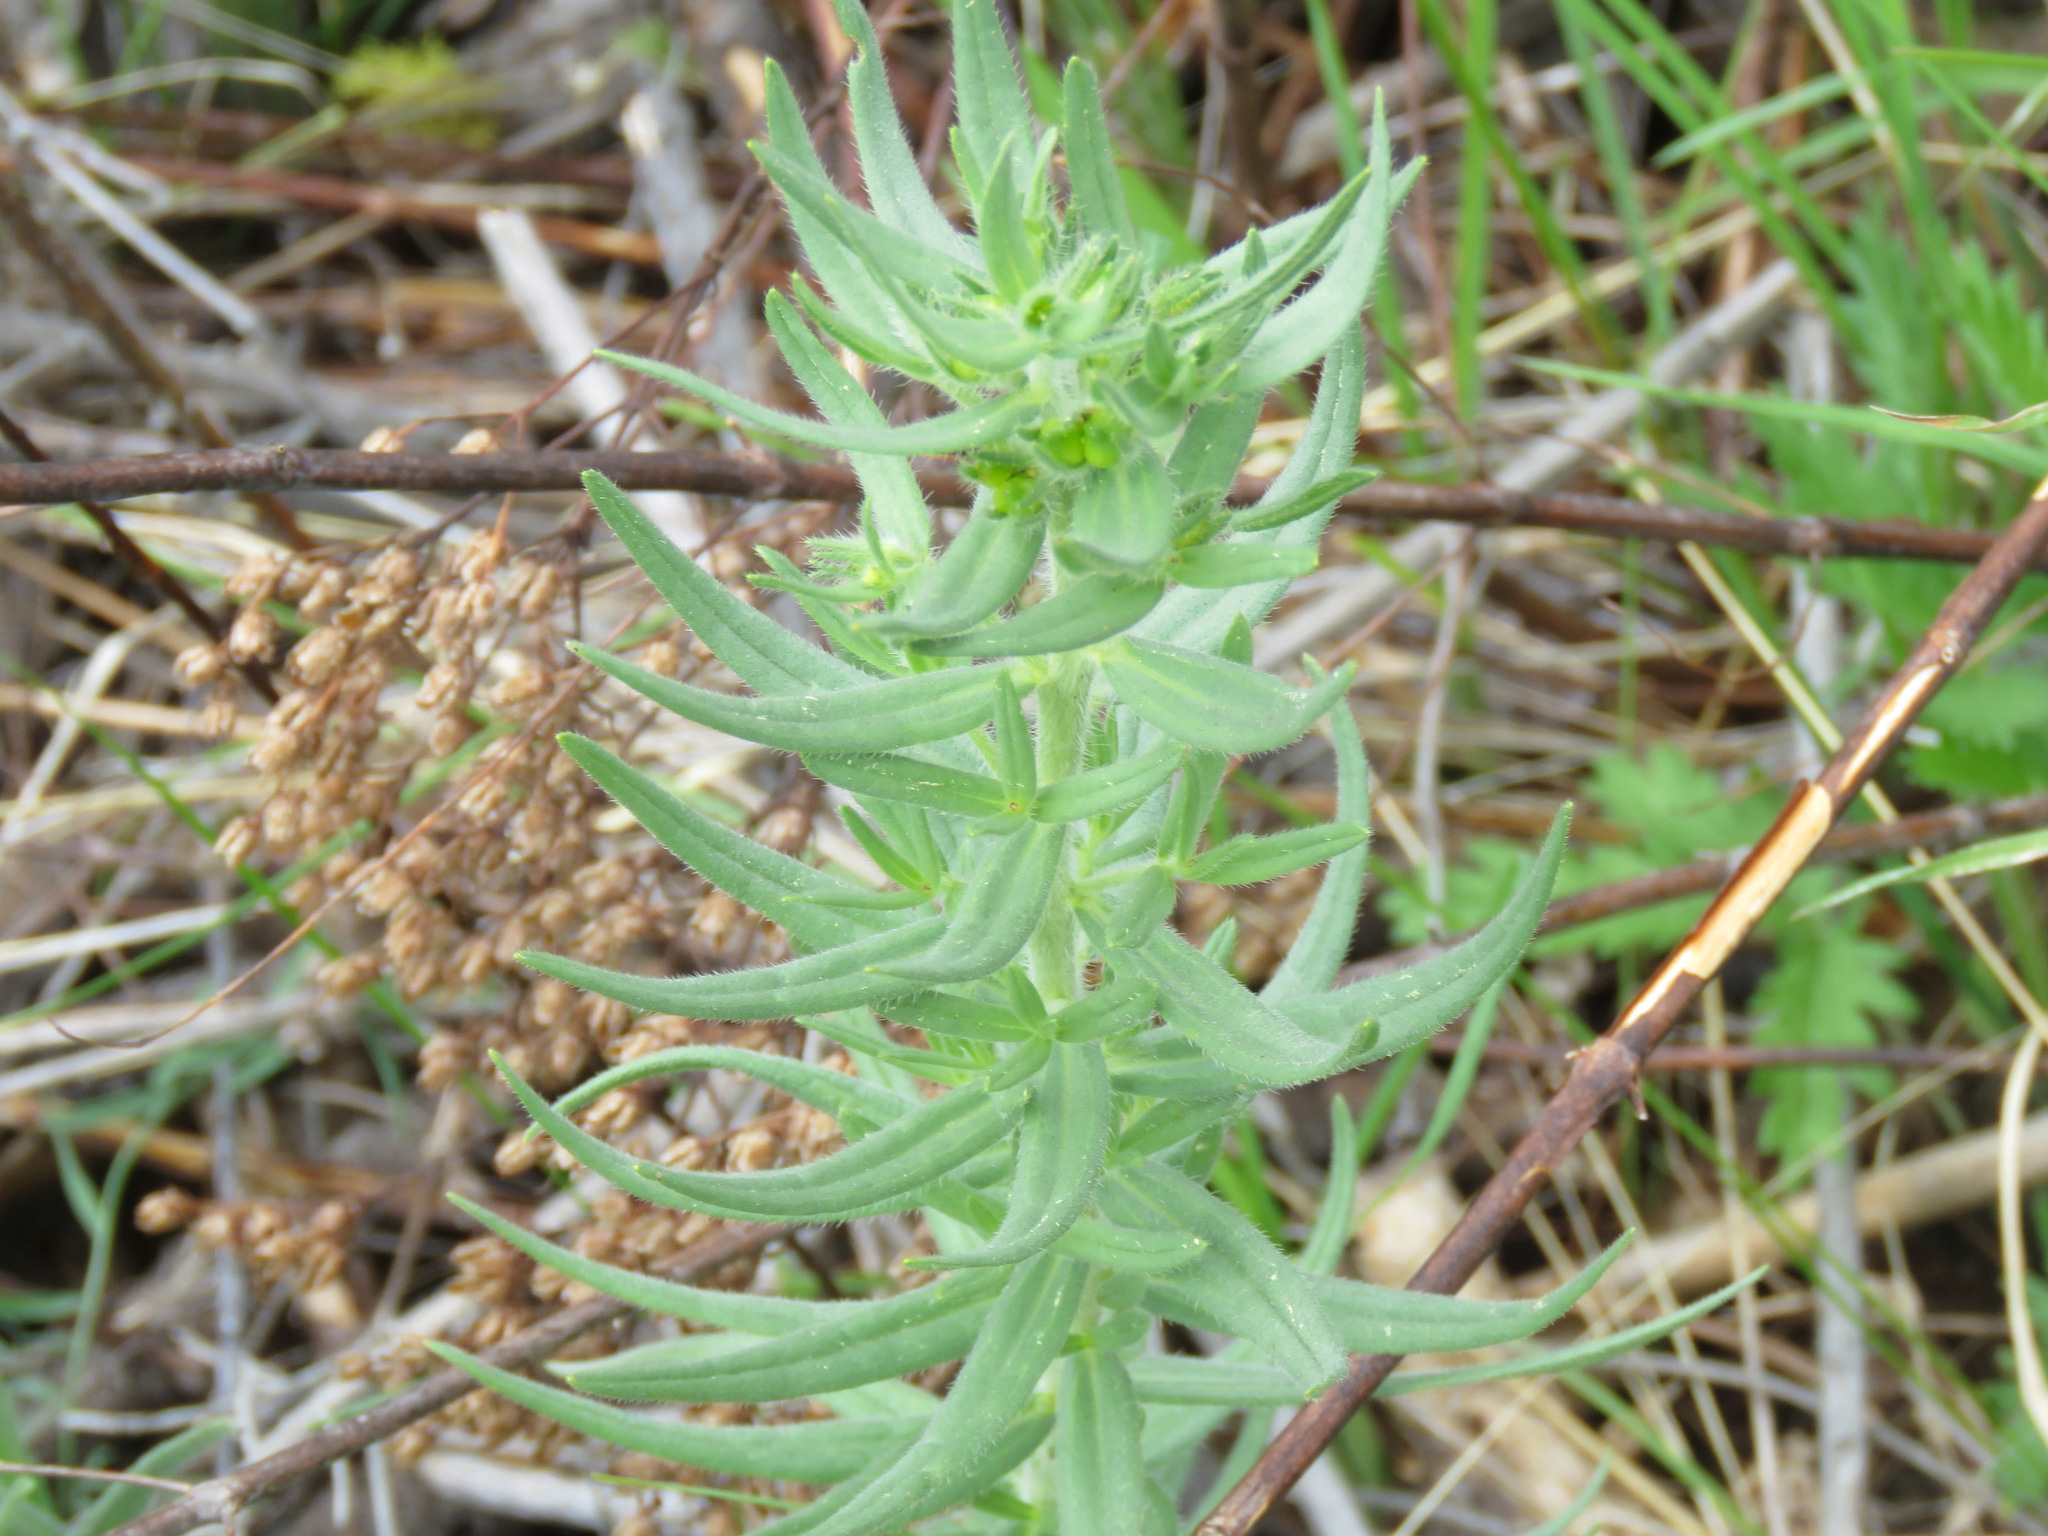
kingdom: Plantae
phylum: Tracheophyta
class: Magnoliopsida
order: Boraginales
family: Boraginaceae
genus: Lithospermum
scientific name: Lithospermum ruderale
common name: Western gromwell
